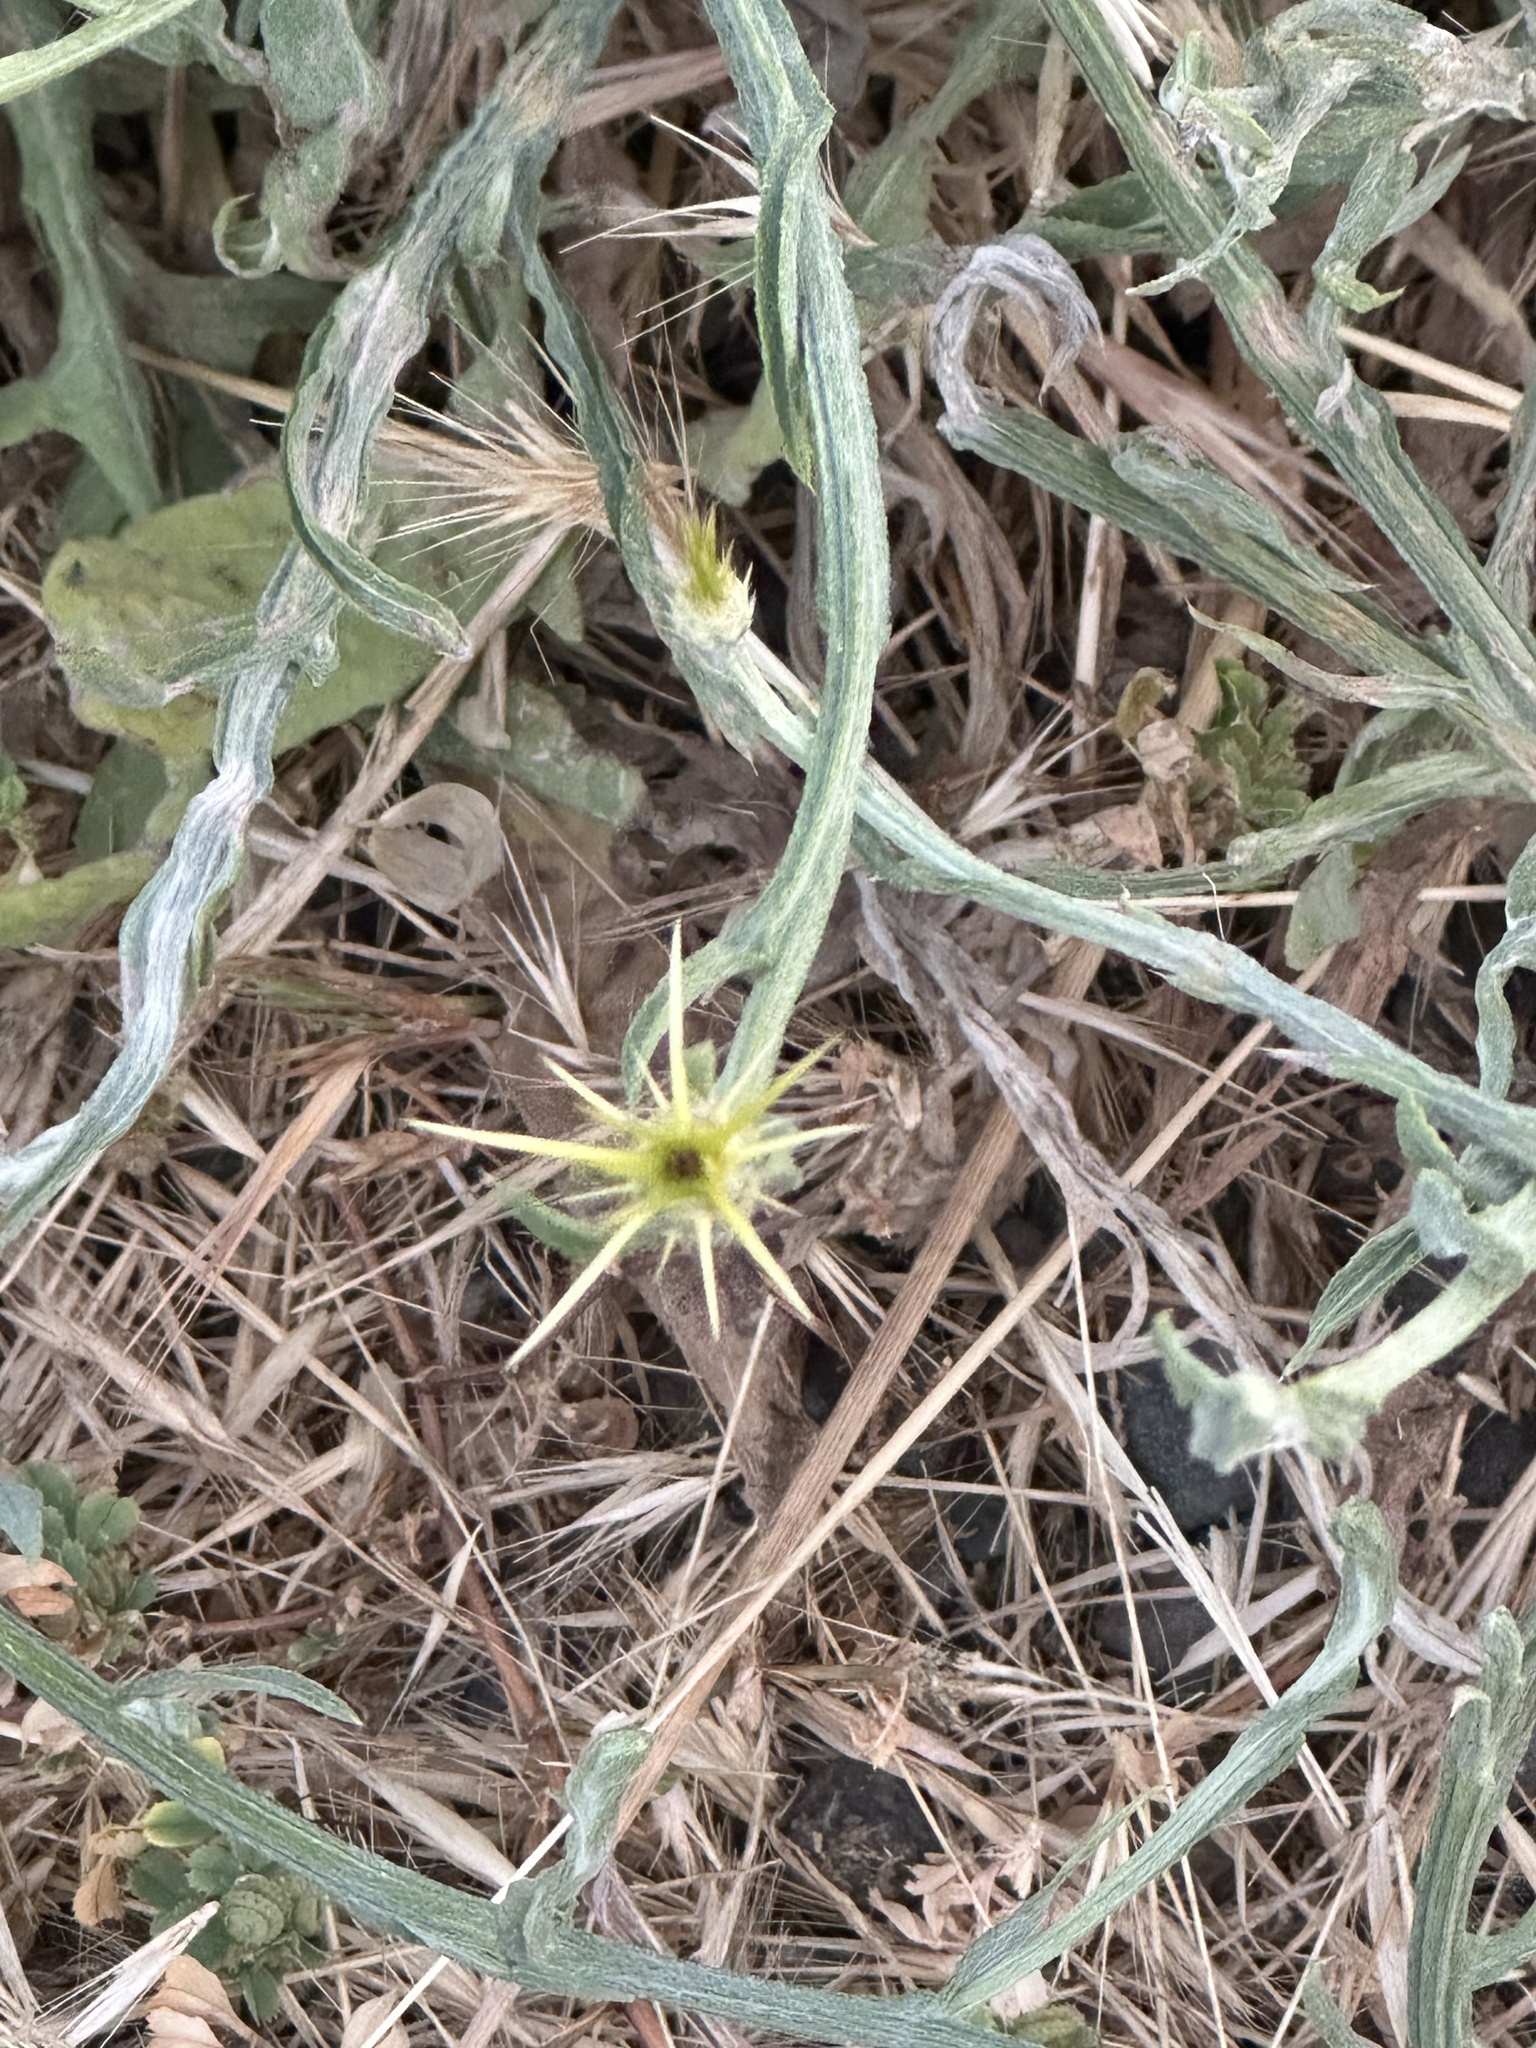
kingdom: Plantae
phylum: Tracheophyta
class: Magnoliopsida
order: Asterales
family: Asteraceae
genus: Centaurea
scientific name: Centaurea solstitialis
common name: Yellow star-thistle
